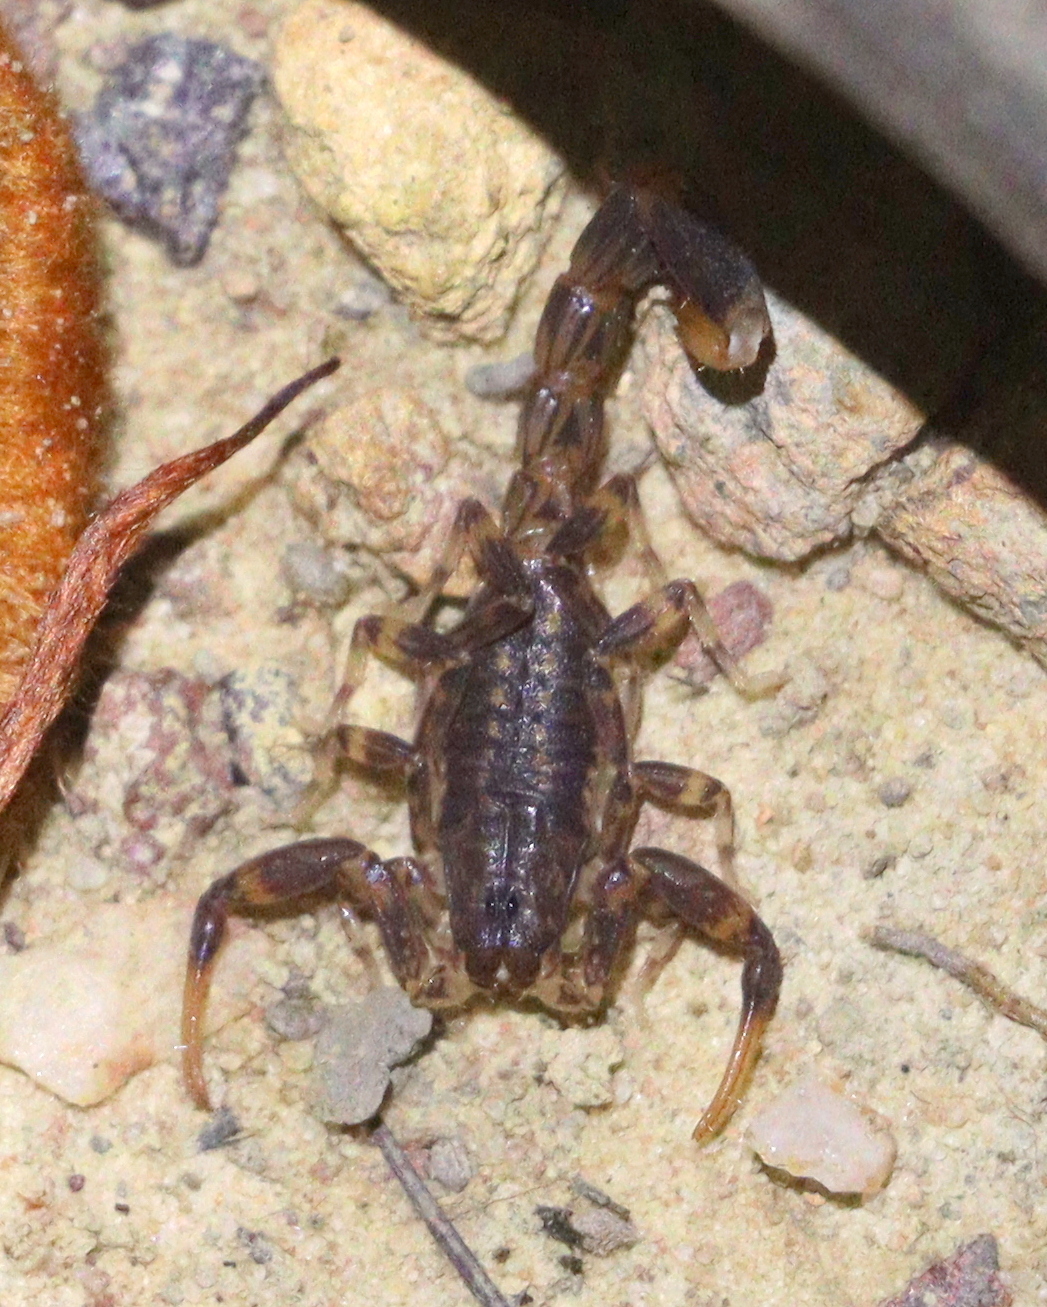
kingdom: Animalia
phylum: Arthropoda
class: Arachnida
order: Scorpiones
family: Buthidae
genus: Ananteris
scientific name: Ananteris balzanii
